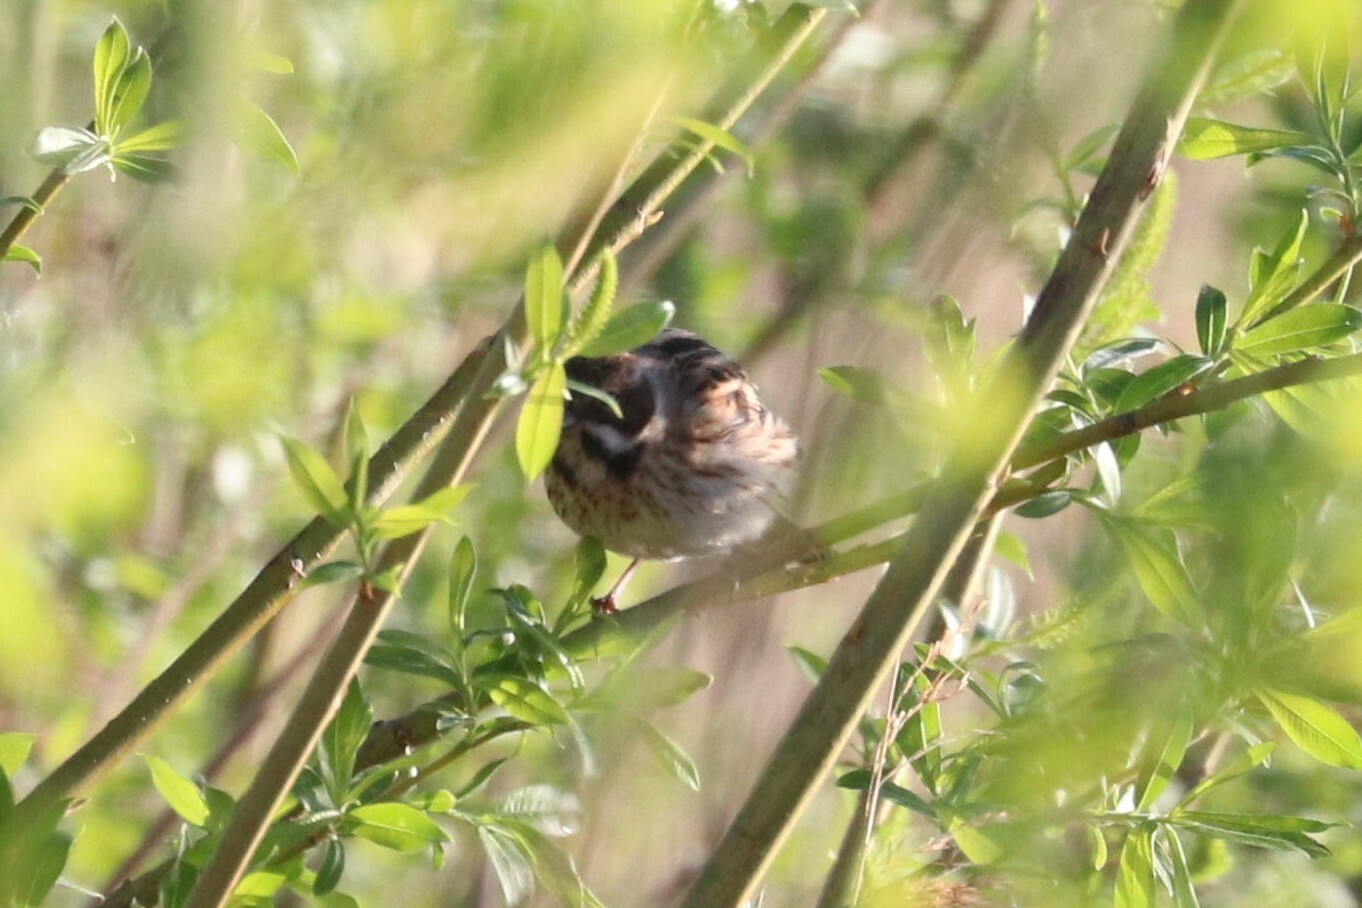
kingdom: Animalia
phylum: Chordata
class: Aves
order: Passeriformes
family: Emberizidae
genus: Emberiza
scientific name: Emberiza schoeniclus
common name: Reed bunting
